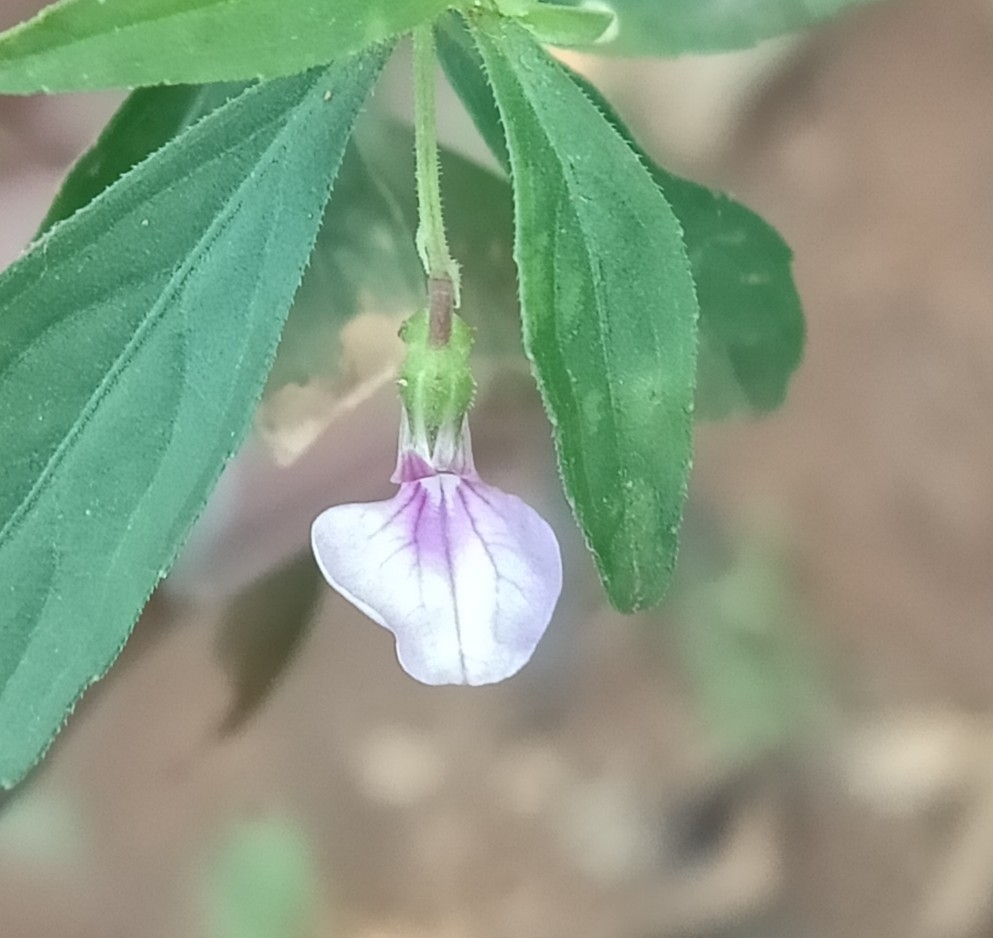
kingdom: Plantae
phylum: Tracheophyta
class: Magnoliopsida
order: Malpighiales
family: Violaceae
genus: Pigea
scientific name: Pigea enneasperma
